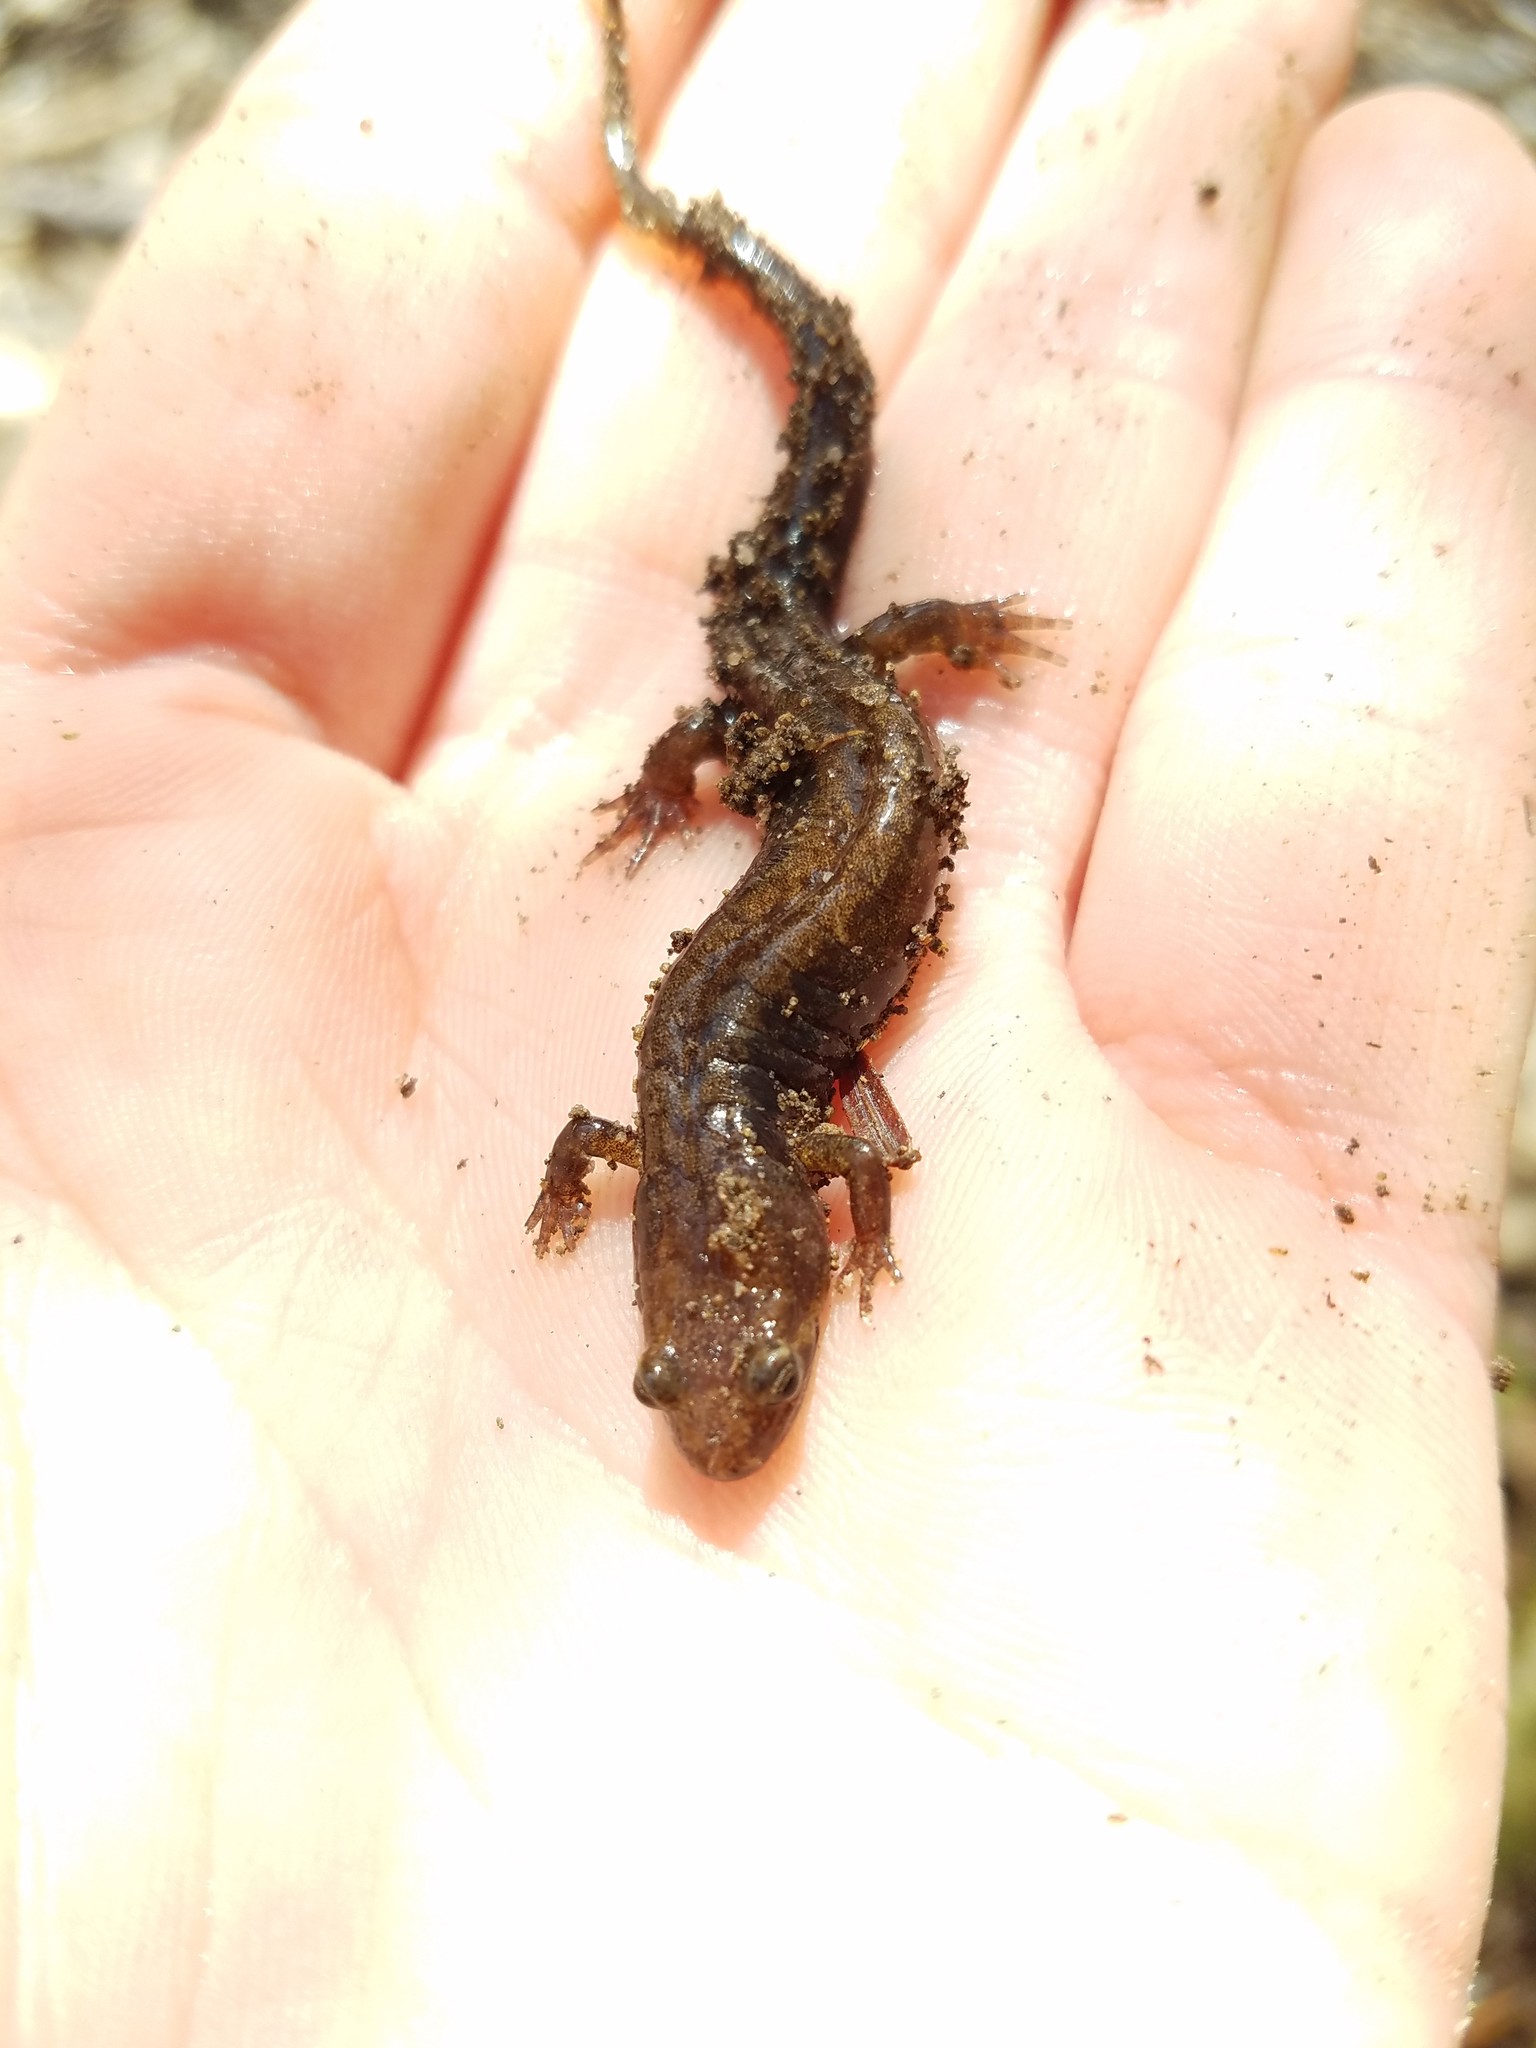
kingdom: Animalia
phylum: Chordata
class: Amphibia
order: Caudata
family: Plethodontidae
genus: Desmognathus
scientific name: Desmognathus ochrophaeus
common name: Allegheny mountain dusky salamander
